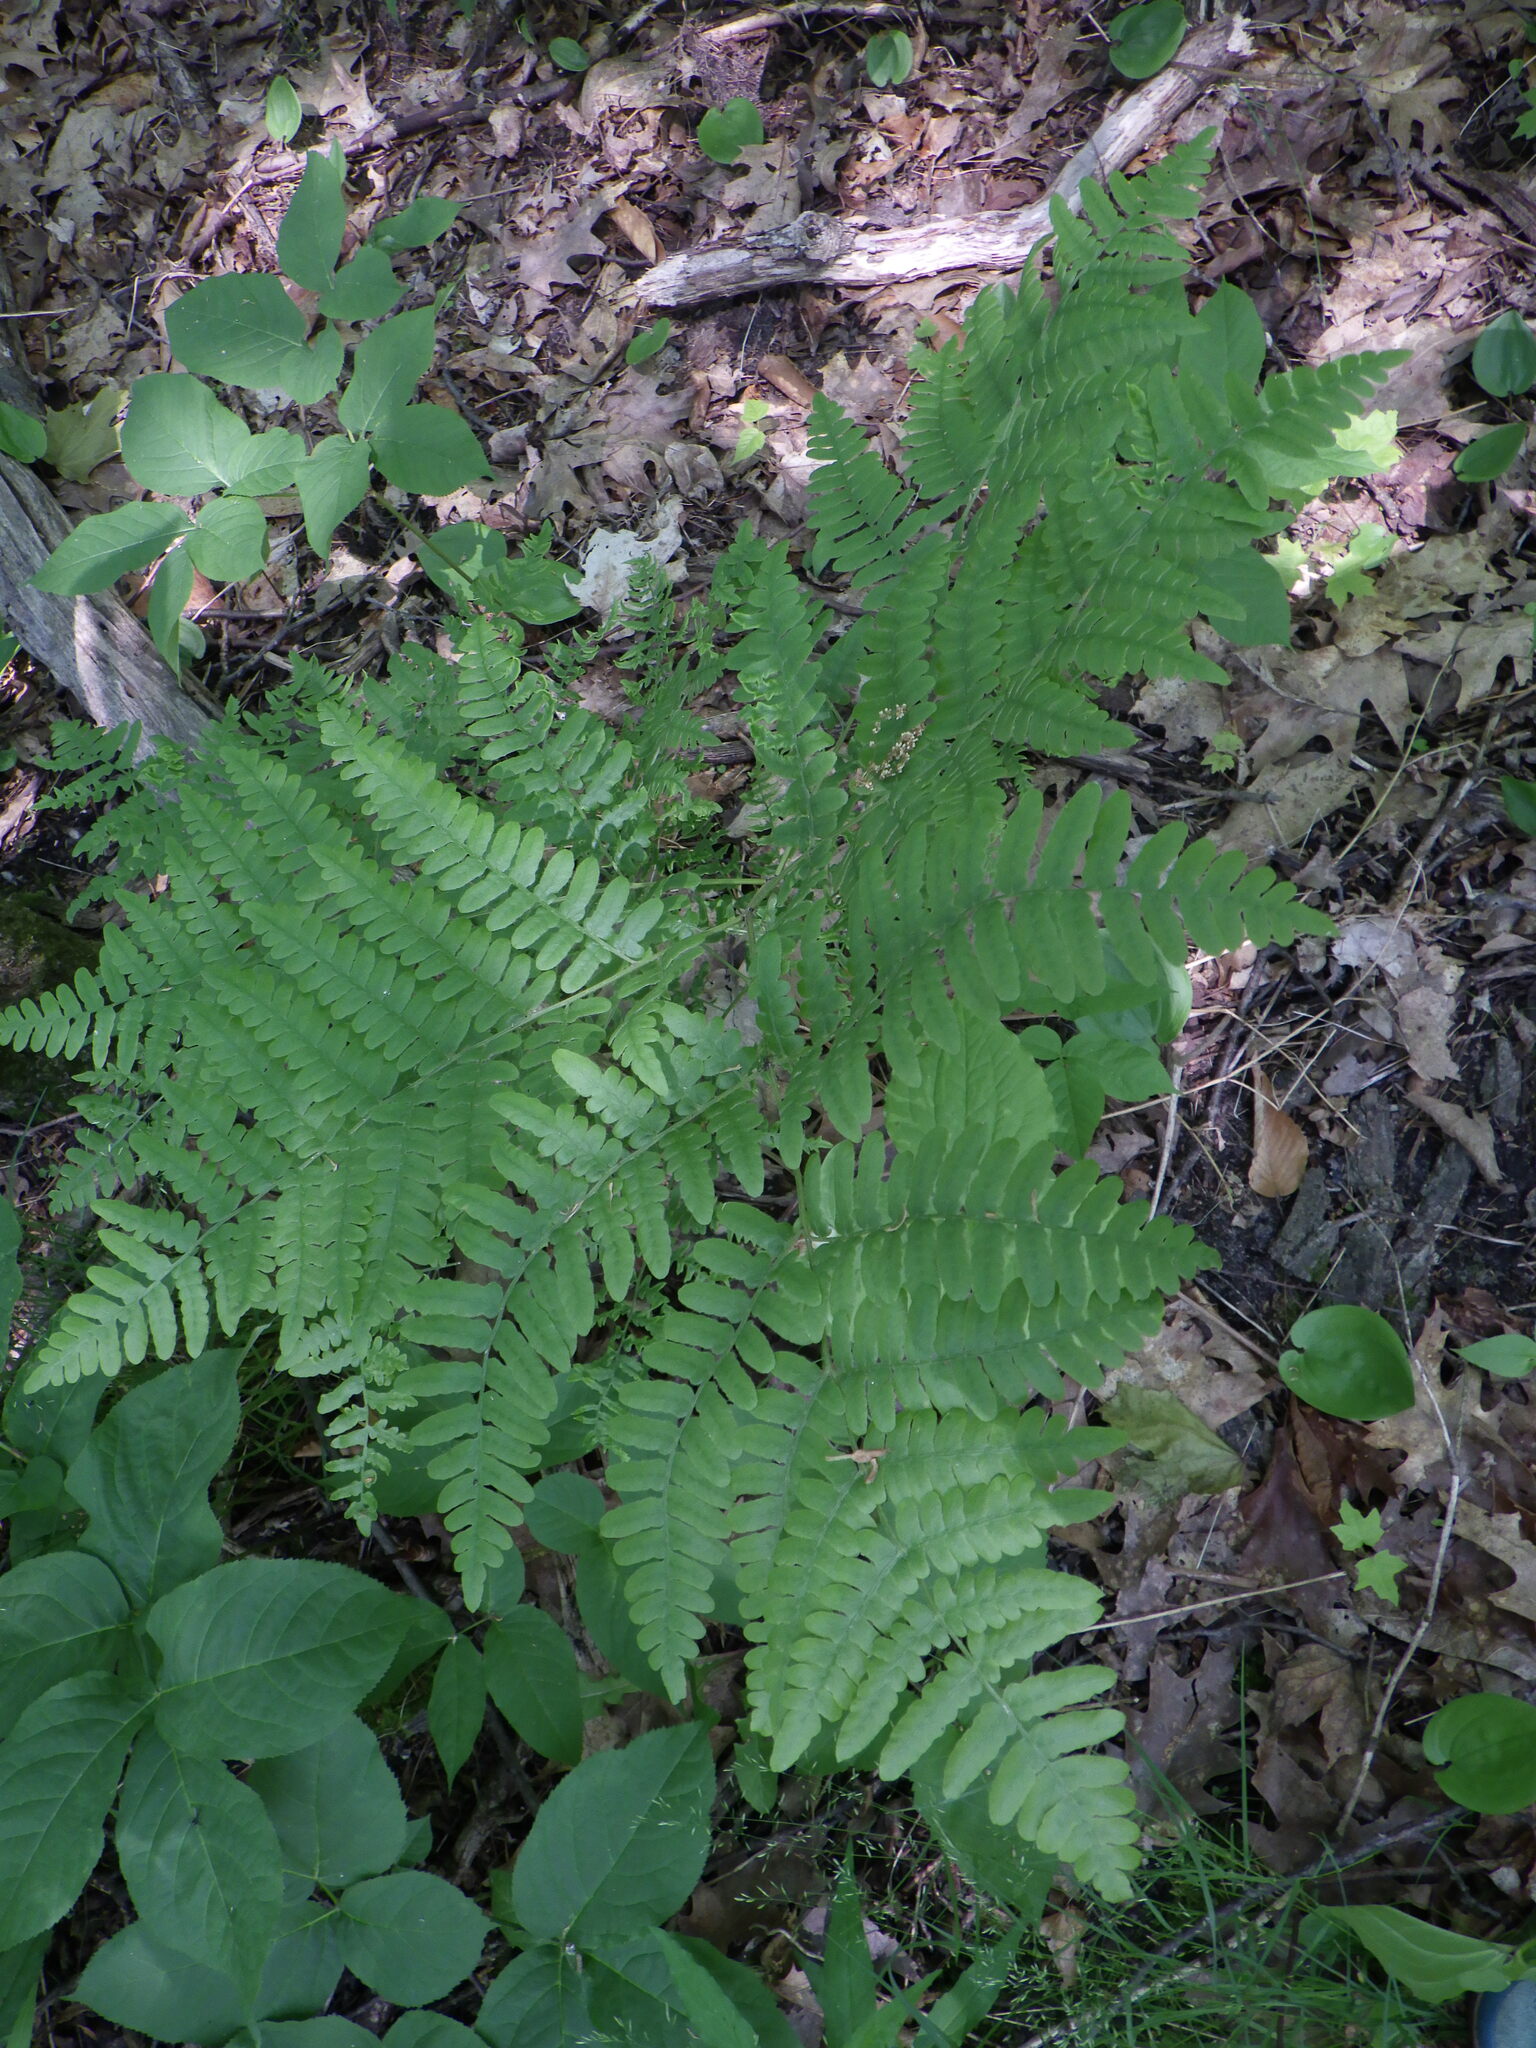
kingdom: Plantae
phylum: Tracheophyta
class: Polypodiopsida
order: Polypodiales
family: Dennstaedtiaceae
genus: Pteridium
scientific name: Pteridium aquilinum
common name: Bracken
